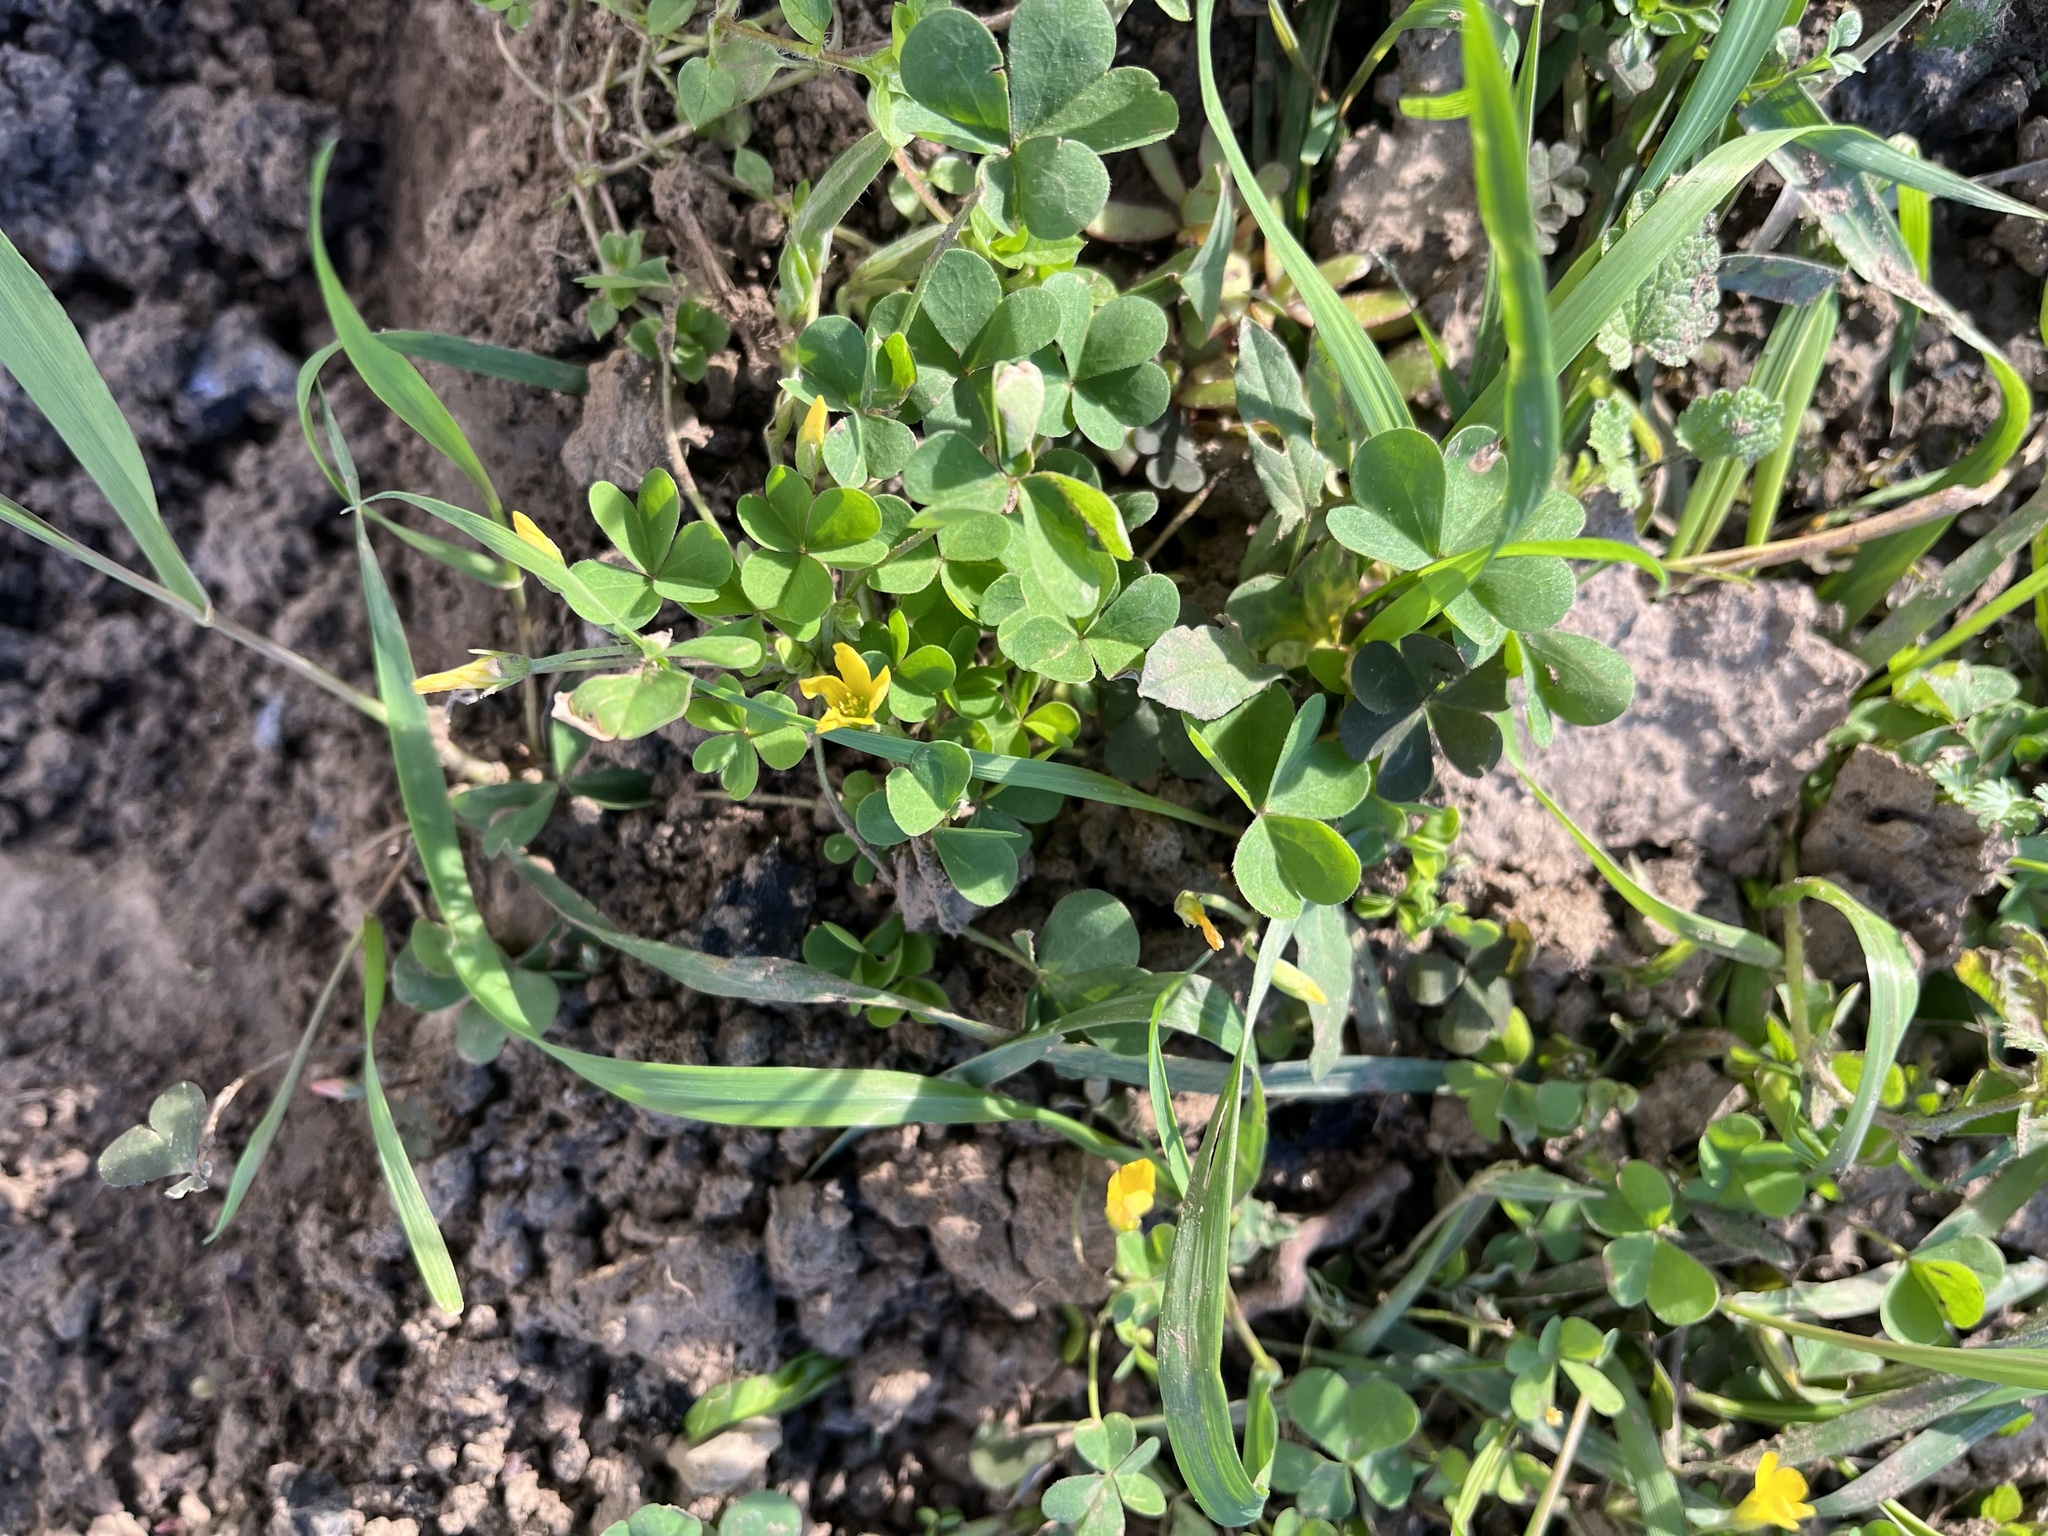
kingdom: Plantae
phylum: Tracheophyta
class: Magnoliopsida
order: Oxalidales
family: Oxalidaceae
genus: Oxalis
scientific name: Oxalis stricta
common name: Upright yellow-sorrel
